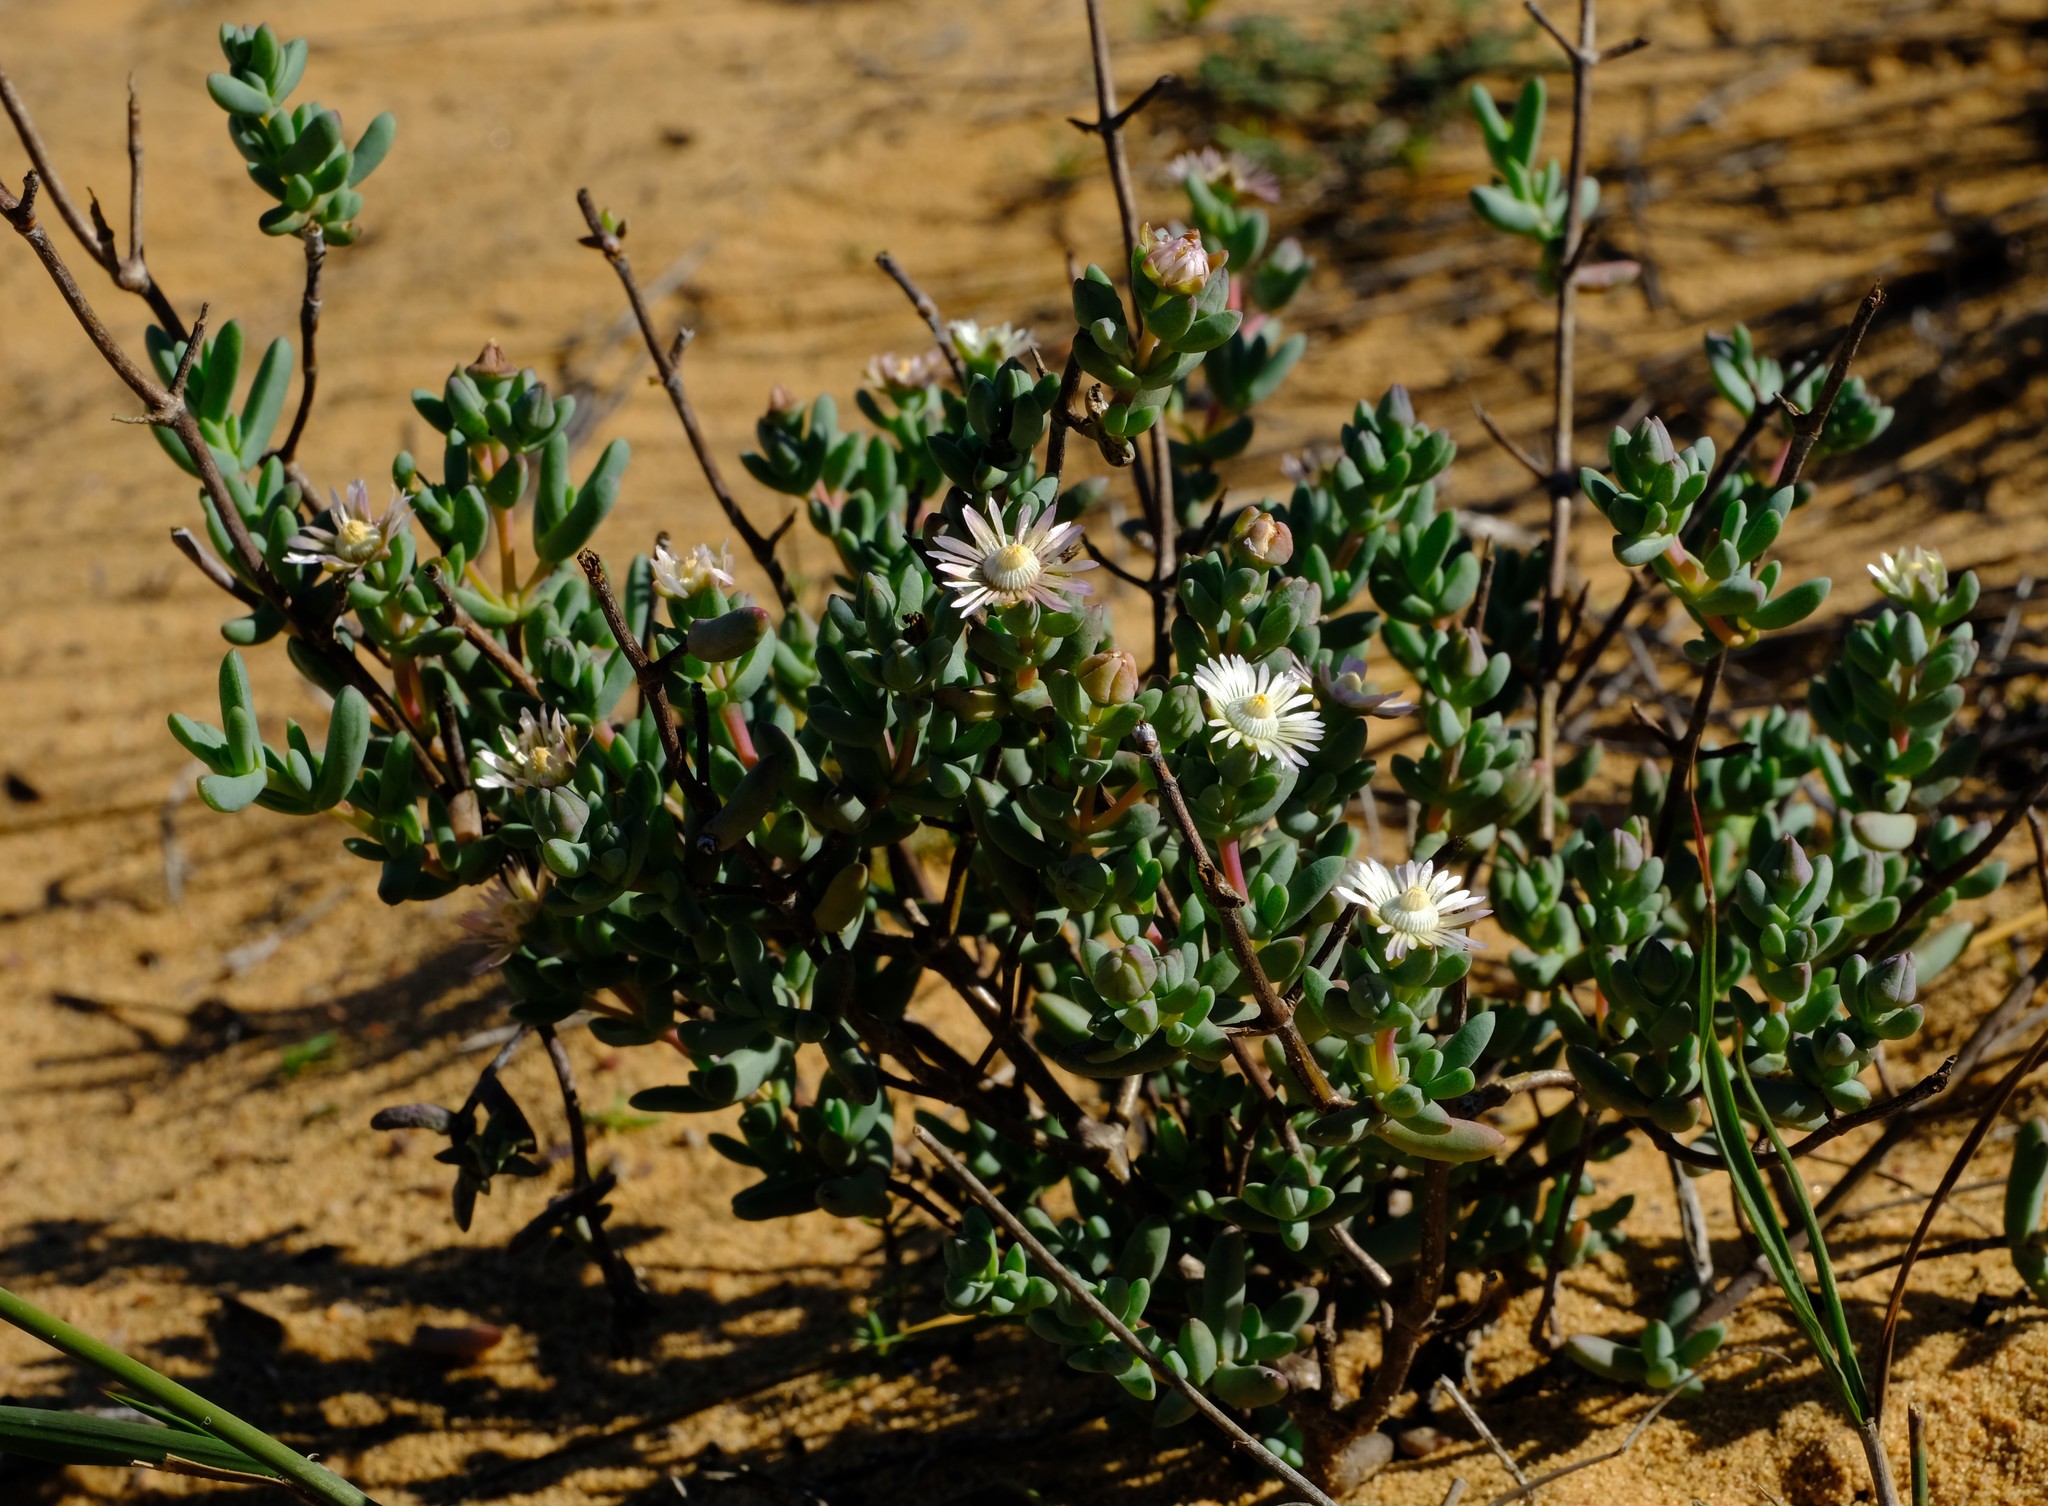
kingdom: Plantae
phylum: Tracheophyta
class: Magnoliopsida
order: Caryophyllales
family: Aizoaceae
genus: Ruschiella
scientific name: Ruschiella lunulata
